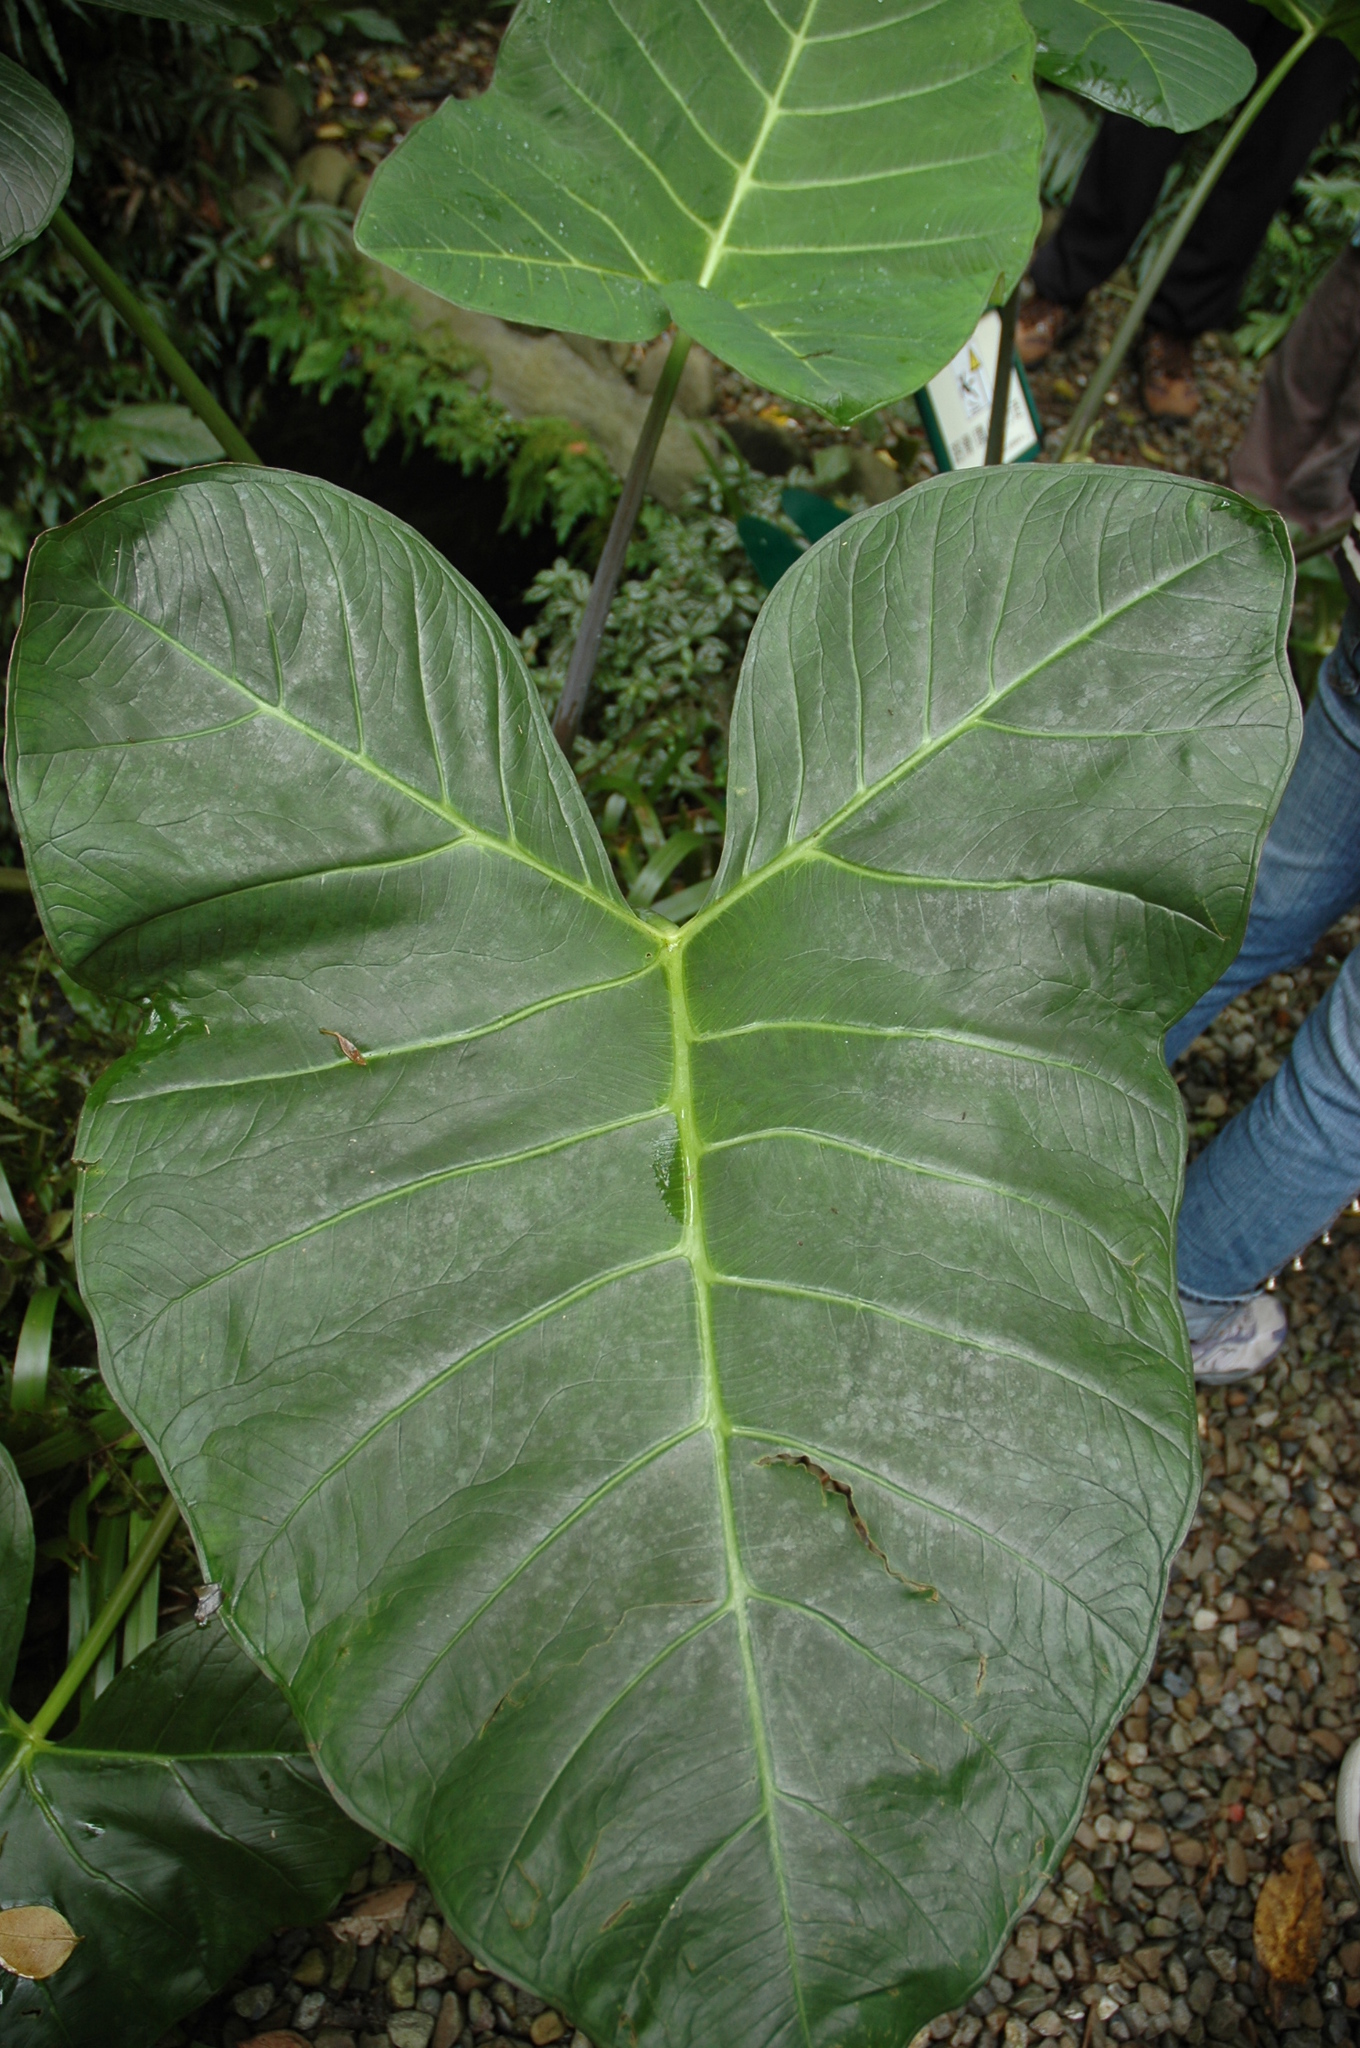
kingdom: Plantae
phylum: Tracheophyta
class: Liliopsida
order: Alismatales
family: Araceae
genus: Xanthosoma
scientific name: Xanthosoma sagittifolium
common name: Arrowleaf elephant's ear
